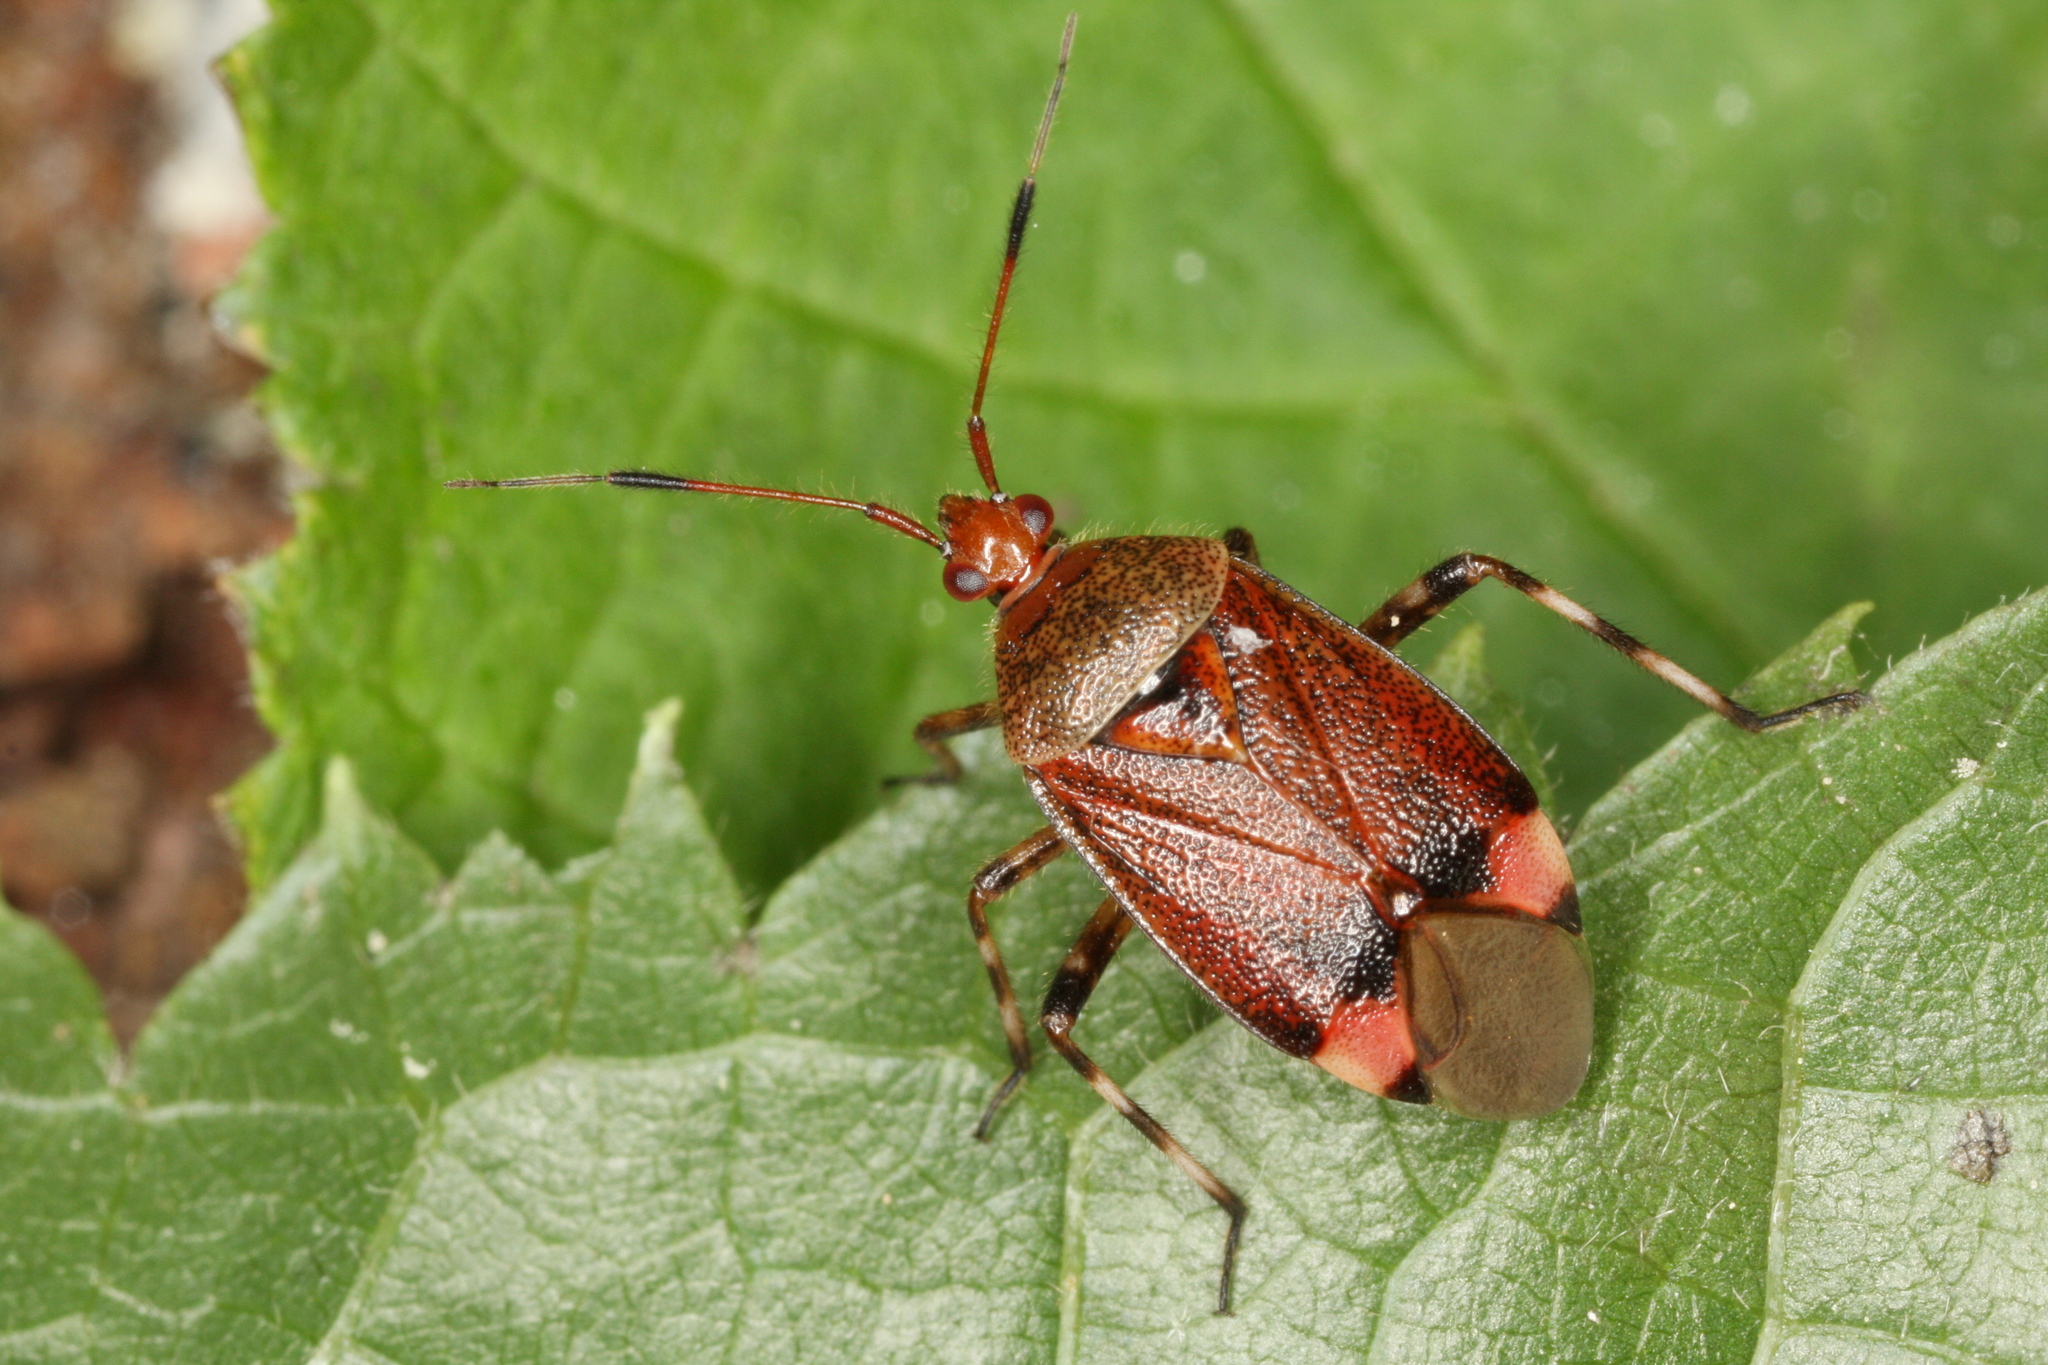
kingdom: Animalia
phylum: Arthropoda
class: Insecta
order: Hemiptera
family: Miridae
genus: Deraeocoris
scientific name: Deraeocoris olivaceus
